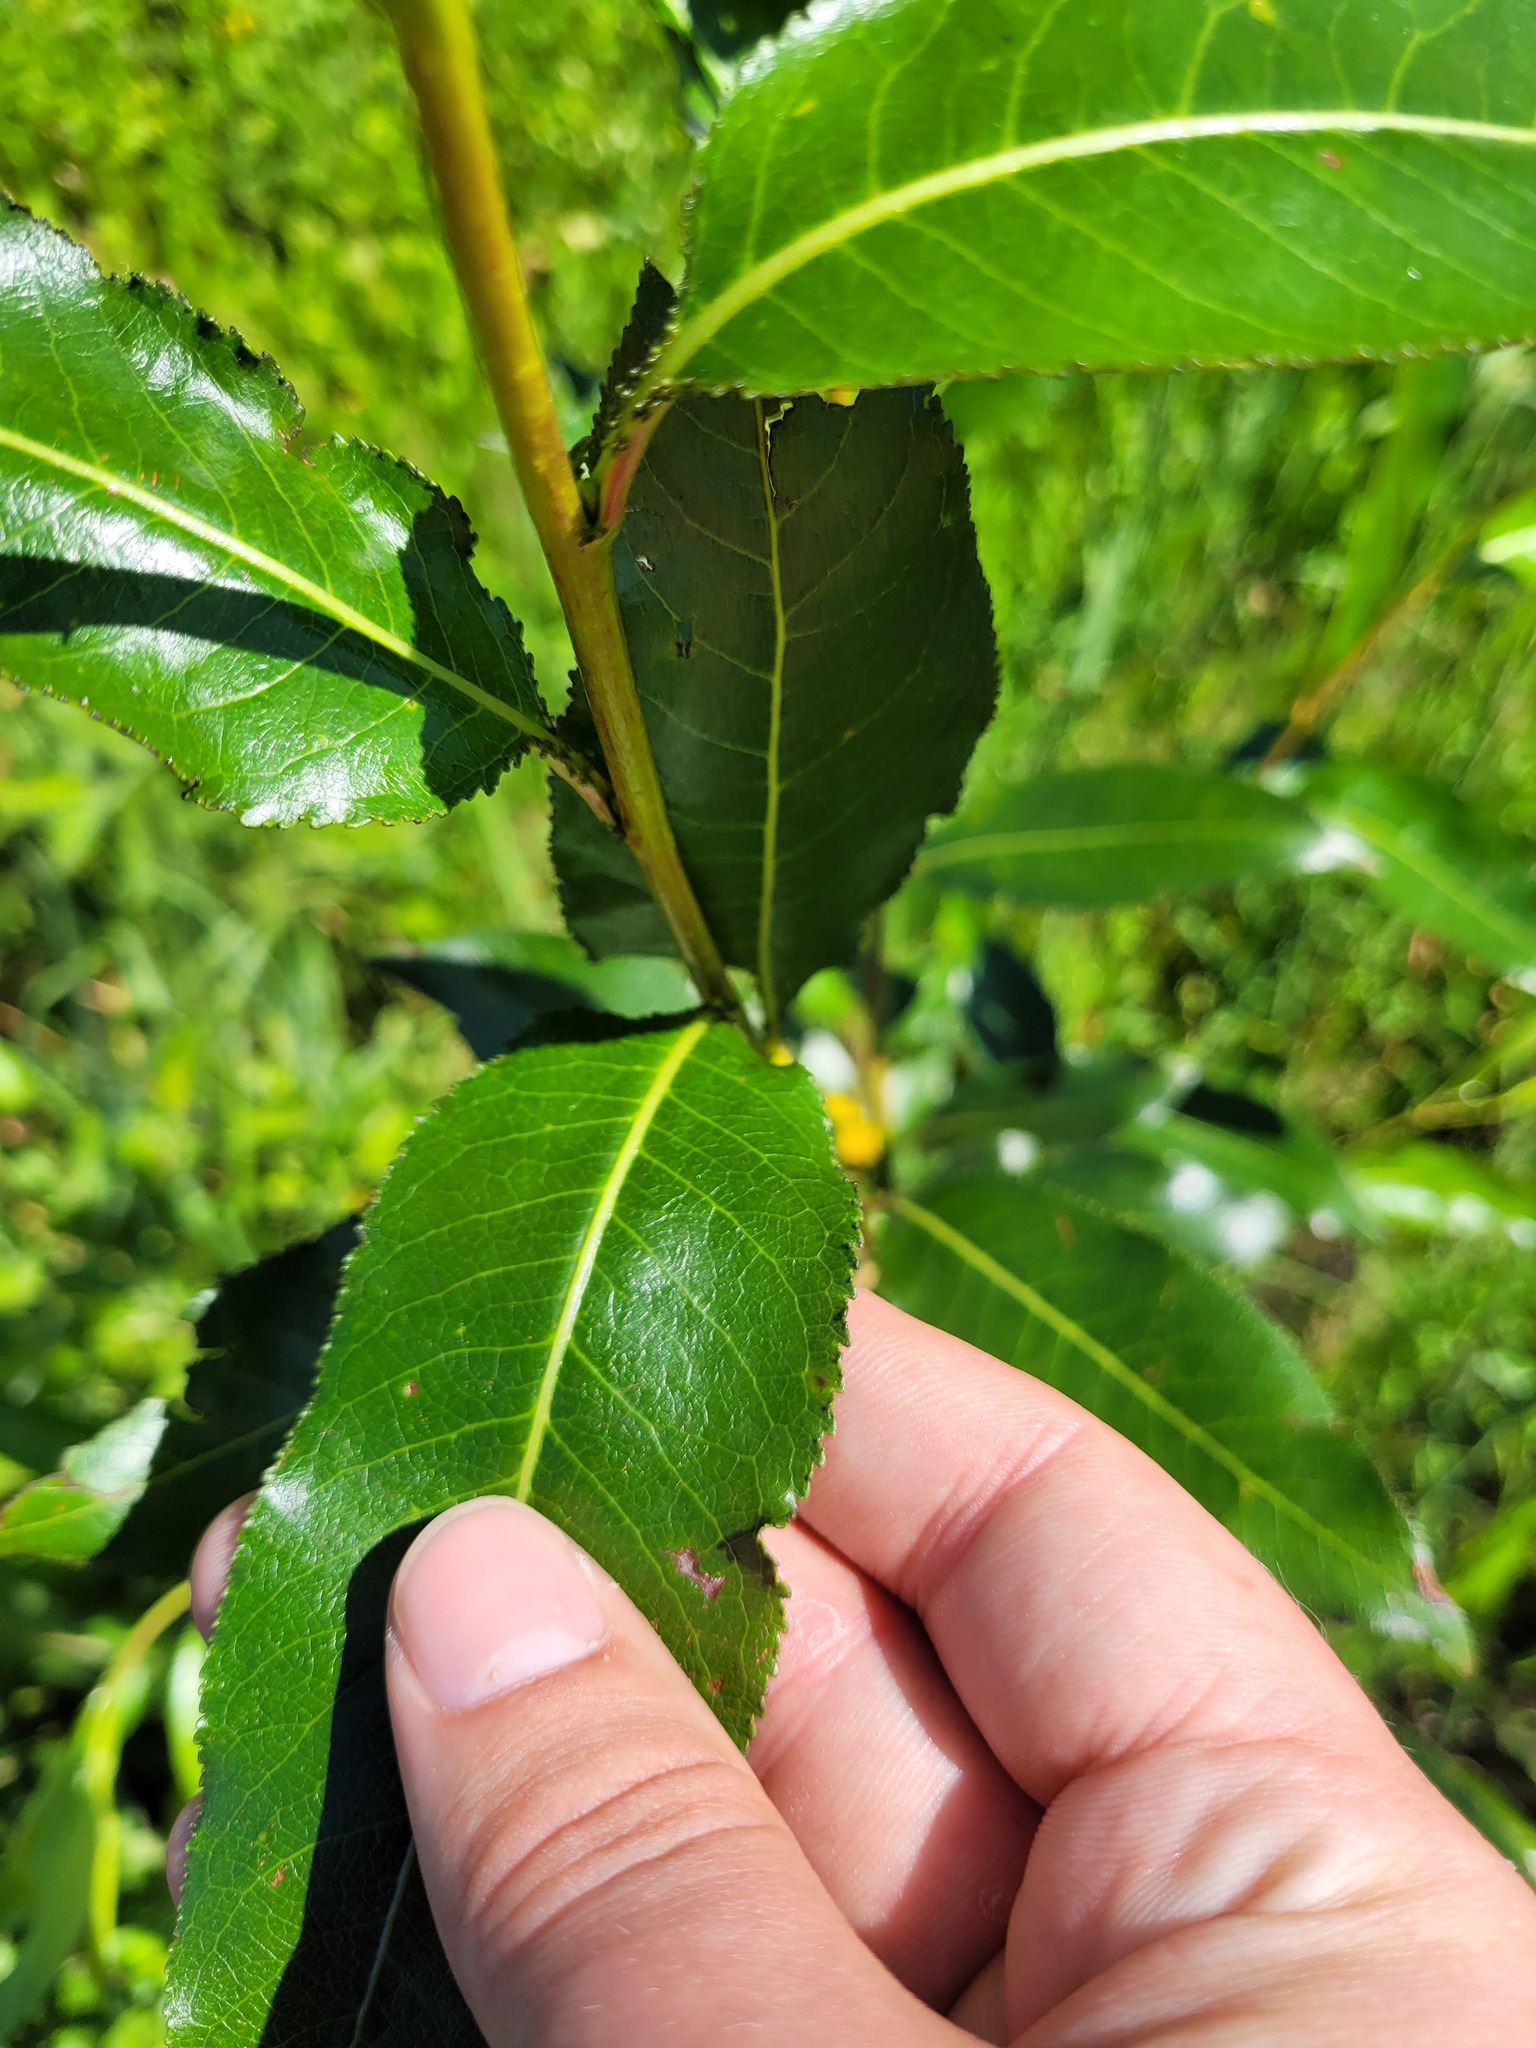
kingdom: Plantae
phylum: Tracheophyta
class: Magnoliopsida
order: Malpighiales
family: Salicaceae
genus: Salix
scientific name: Salix pentandra
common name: Bay willow
